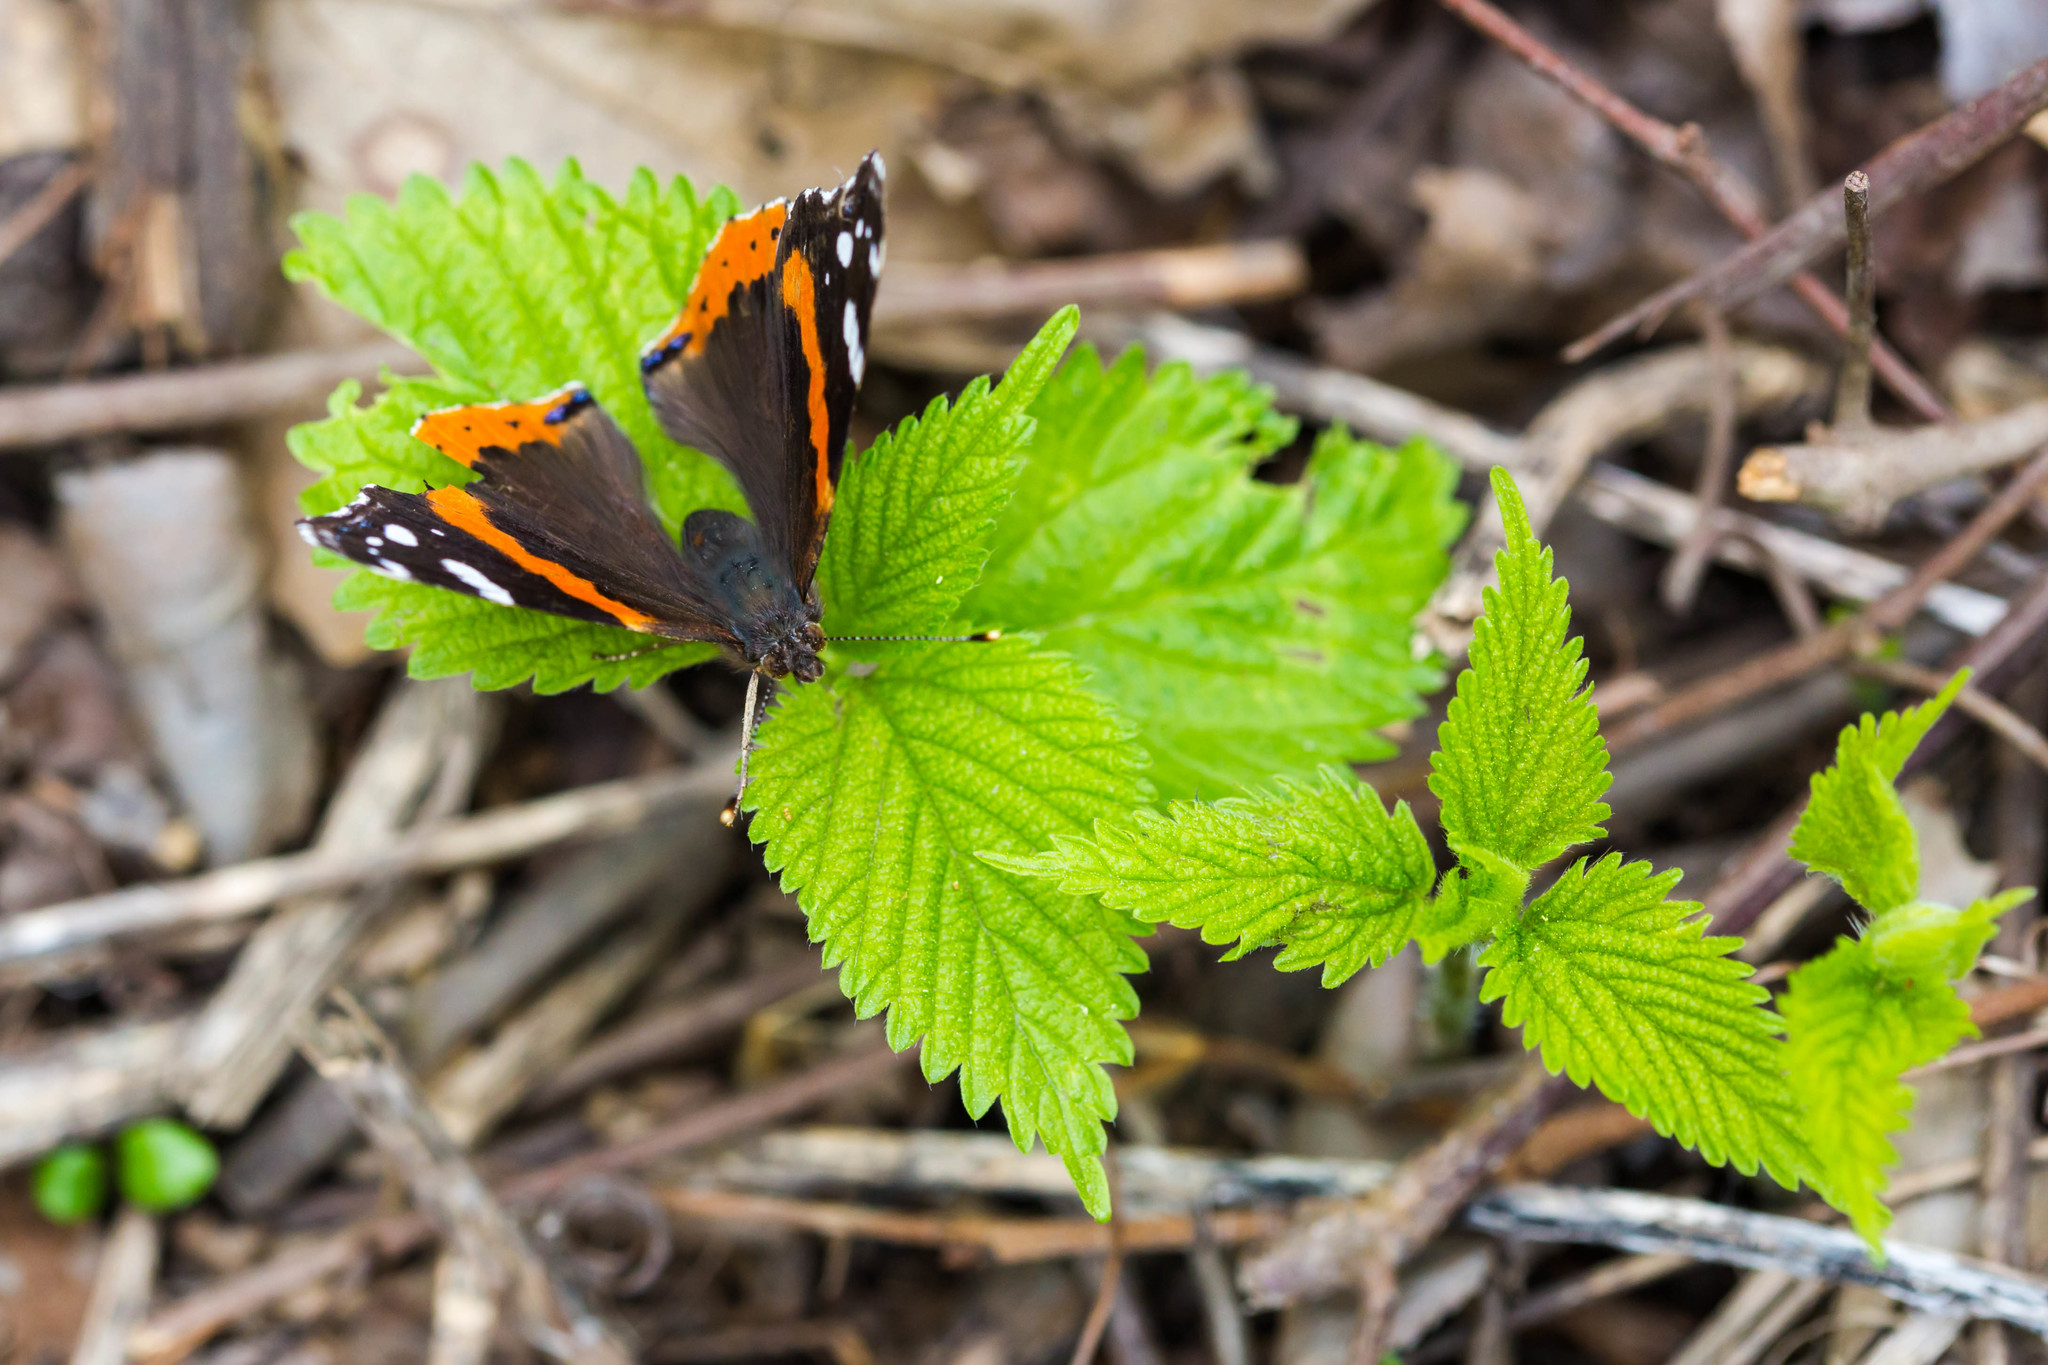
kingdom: Animalia
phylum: Arthropoda
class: Insecta
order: Lepidoptera
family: Nymphalidae
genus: Vanessa
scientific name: Vanessa atalanta
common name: Red admiral
